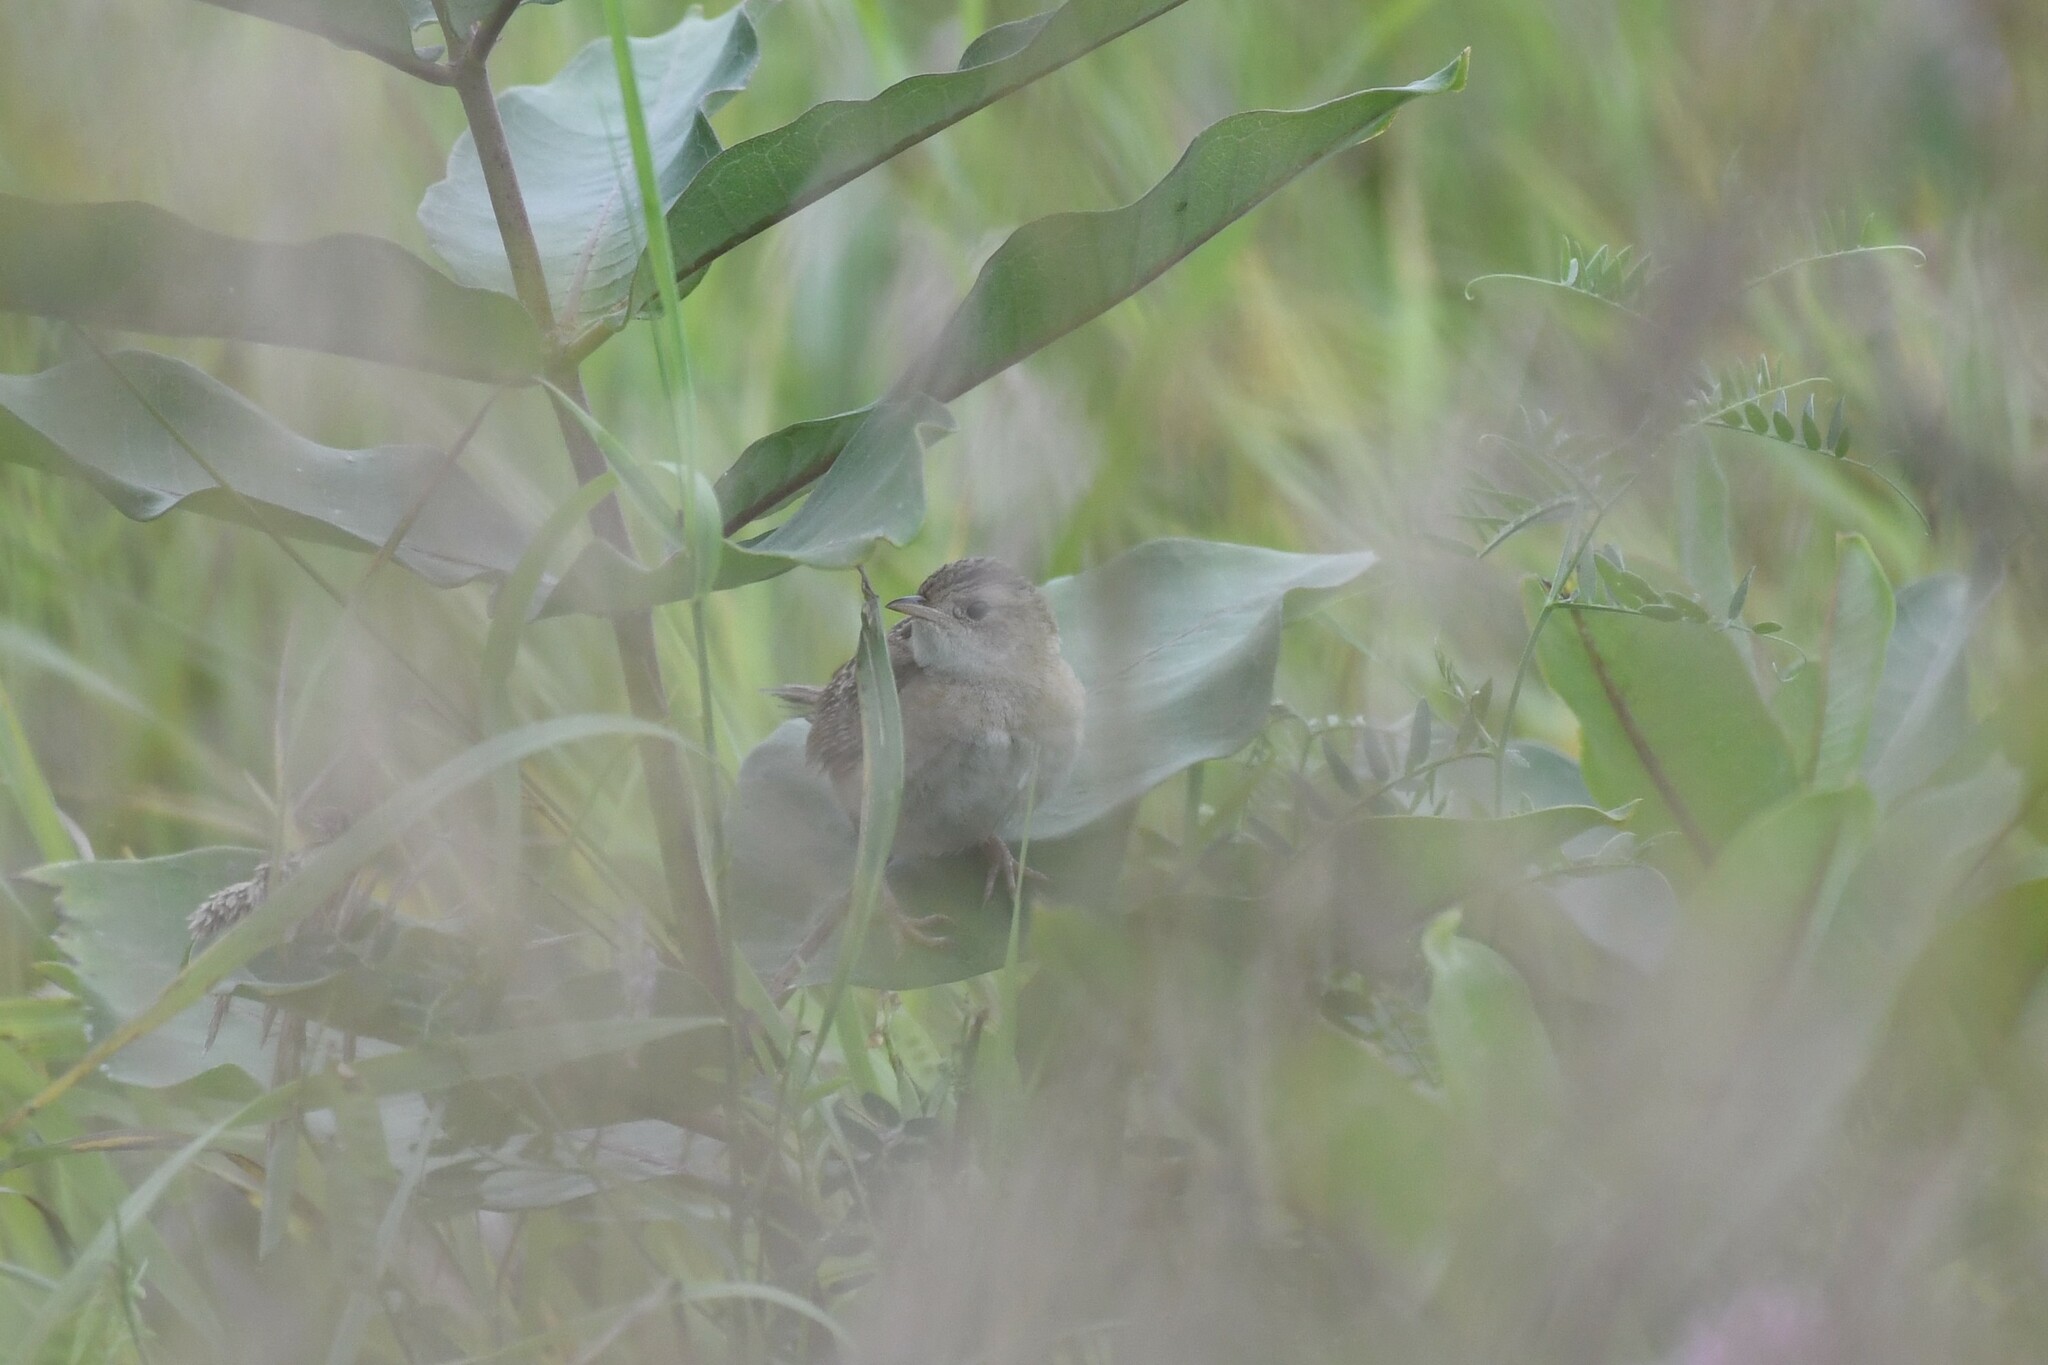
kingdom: Animalia
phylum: Chordata
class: Aves
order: Passeriformes
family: Troglodytidae
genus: Cistothorus
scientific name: Cistothorus platensis
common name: Sedge wren
